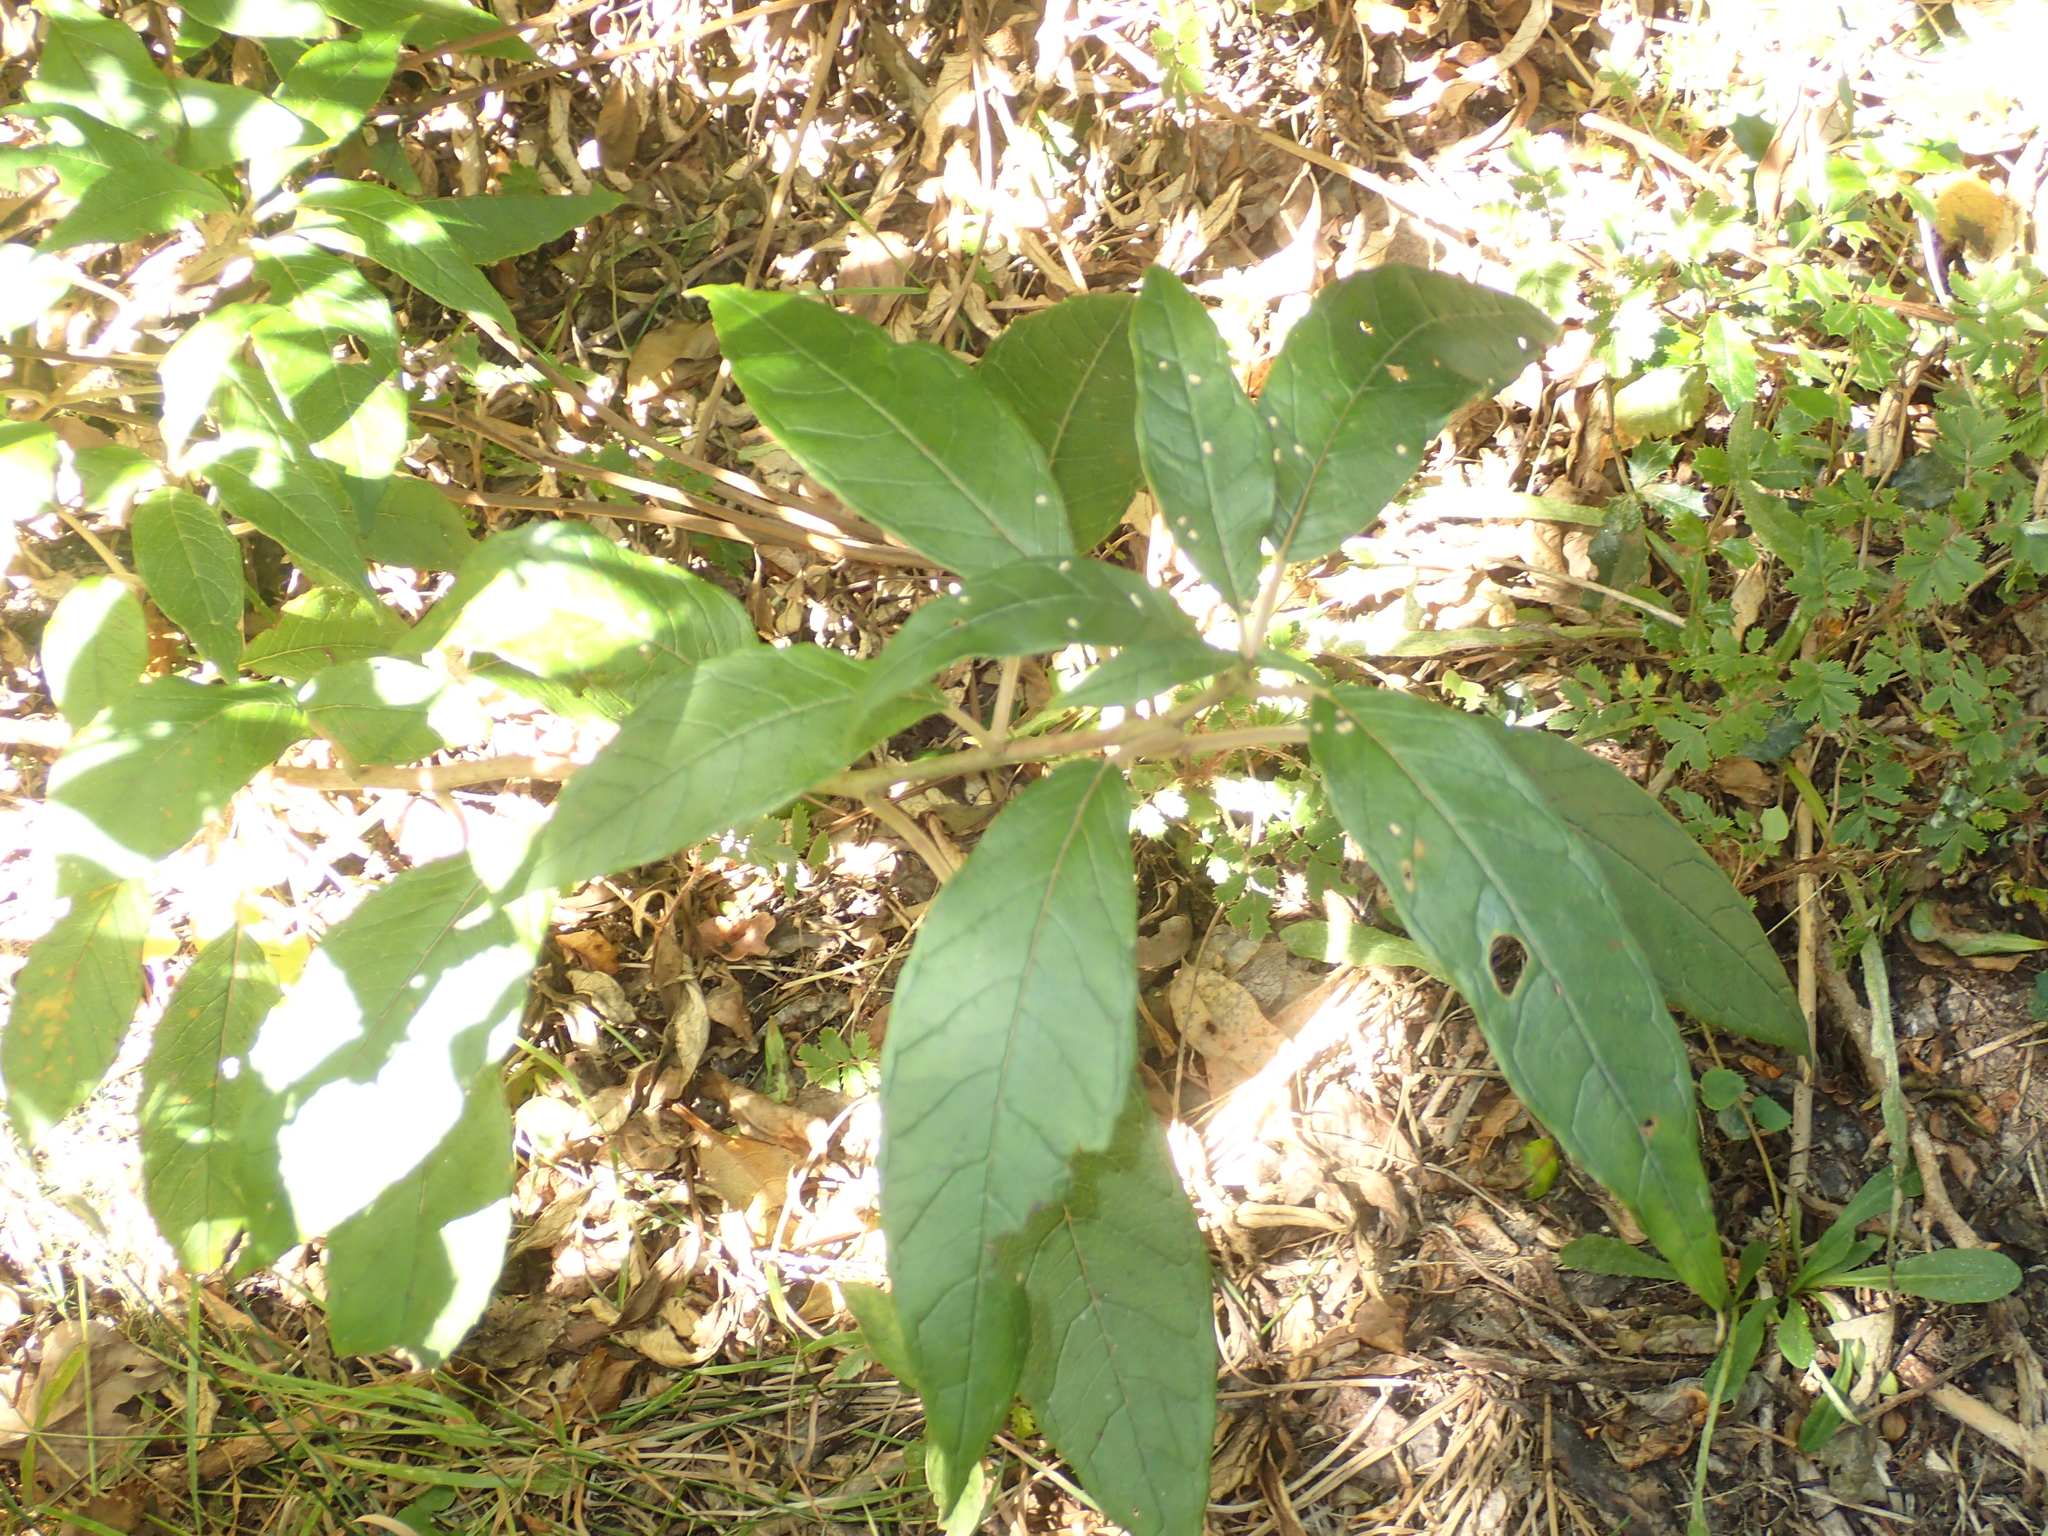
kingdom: Plantae
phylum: Tracheophyta
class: Magnoliopsida
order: Myrtales
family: Onagraceae
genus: Fuchsia
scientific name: Fuchsia excorticata
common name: Tree fuchsia
